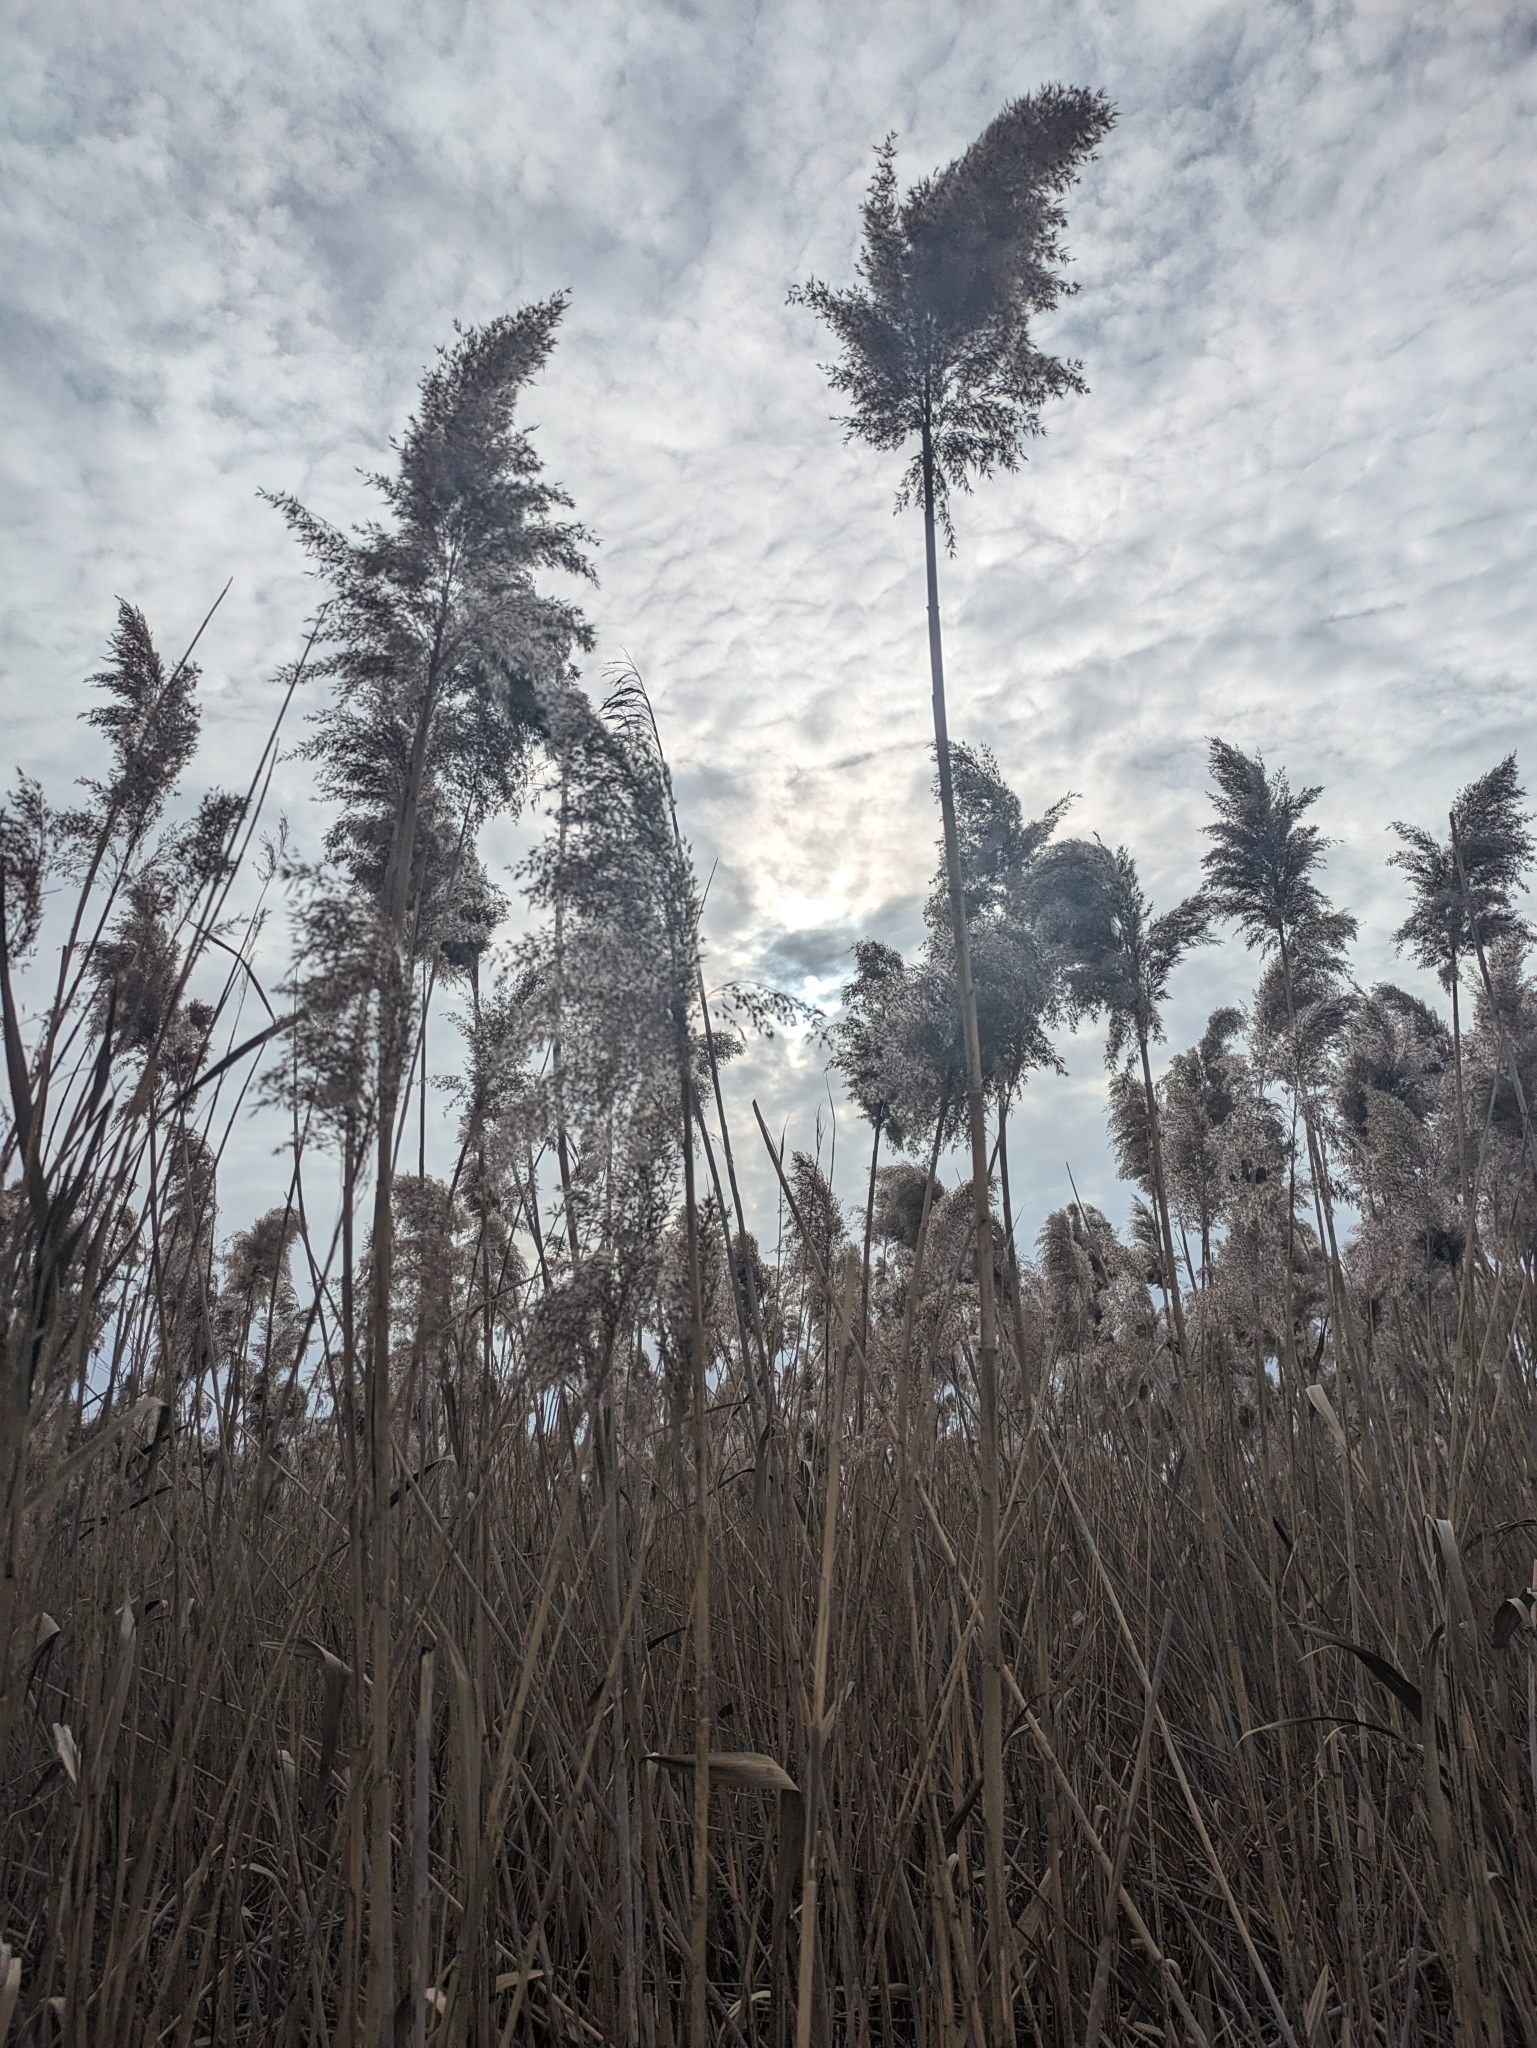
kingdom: Plantae
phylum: Tracheophyta
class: Liliopsida
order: Poales
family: Poaceae
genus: Phragmites
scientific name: Phragmites australis
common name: Common reed
